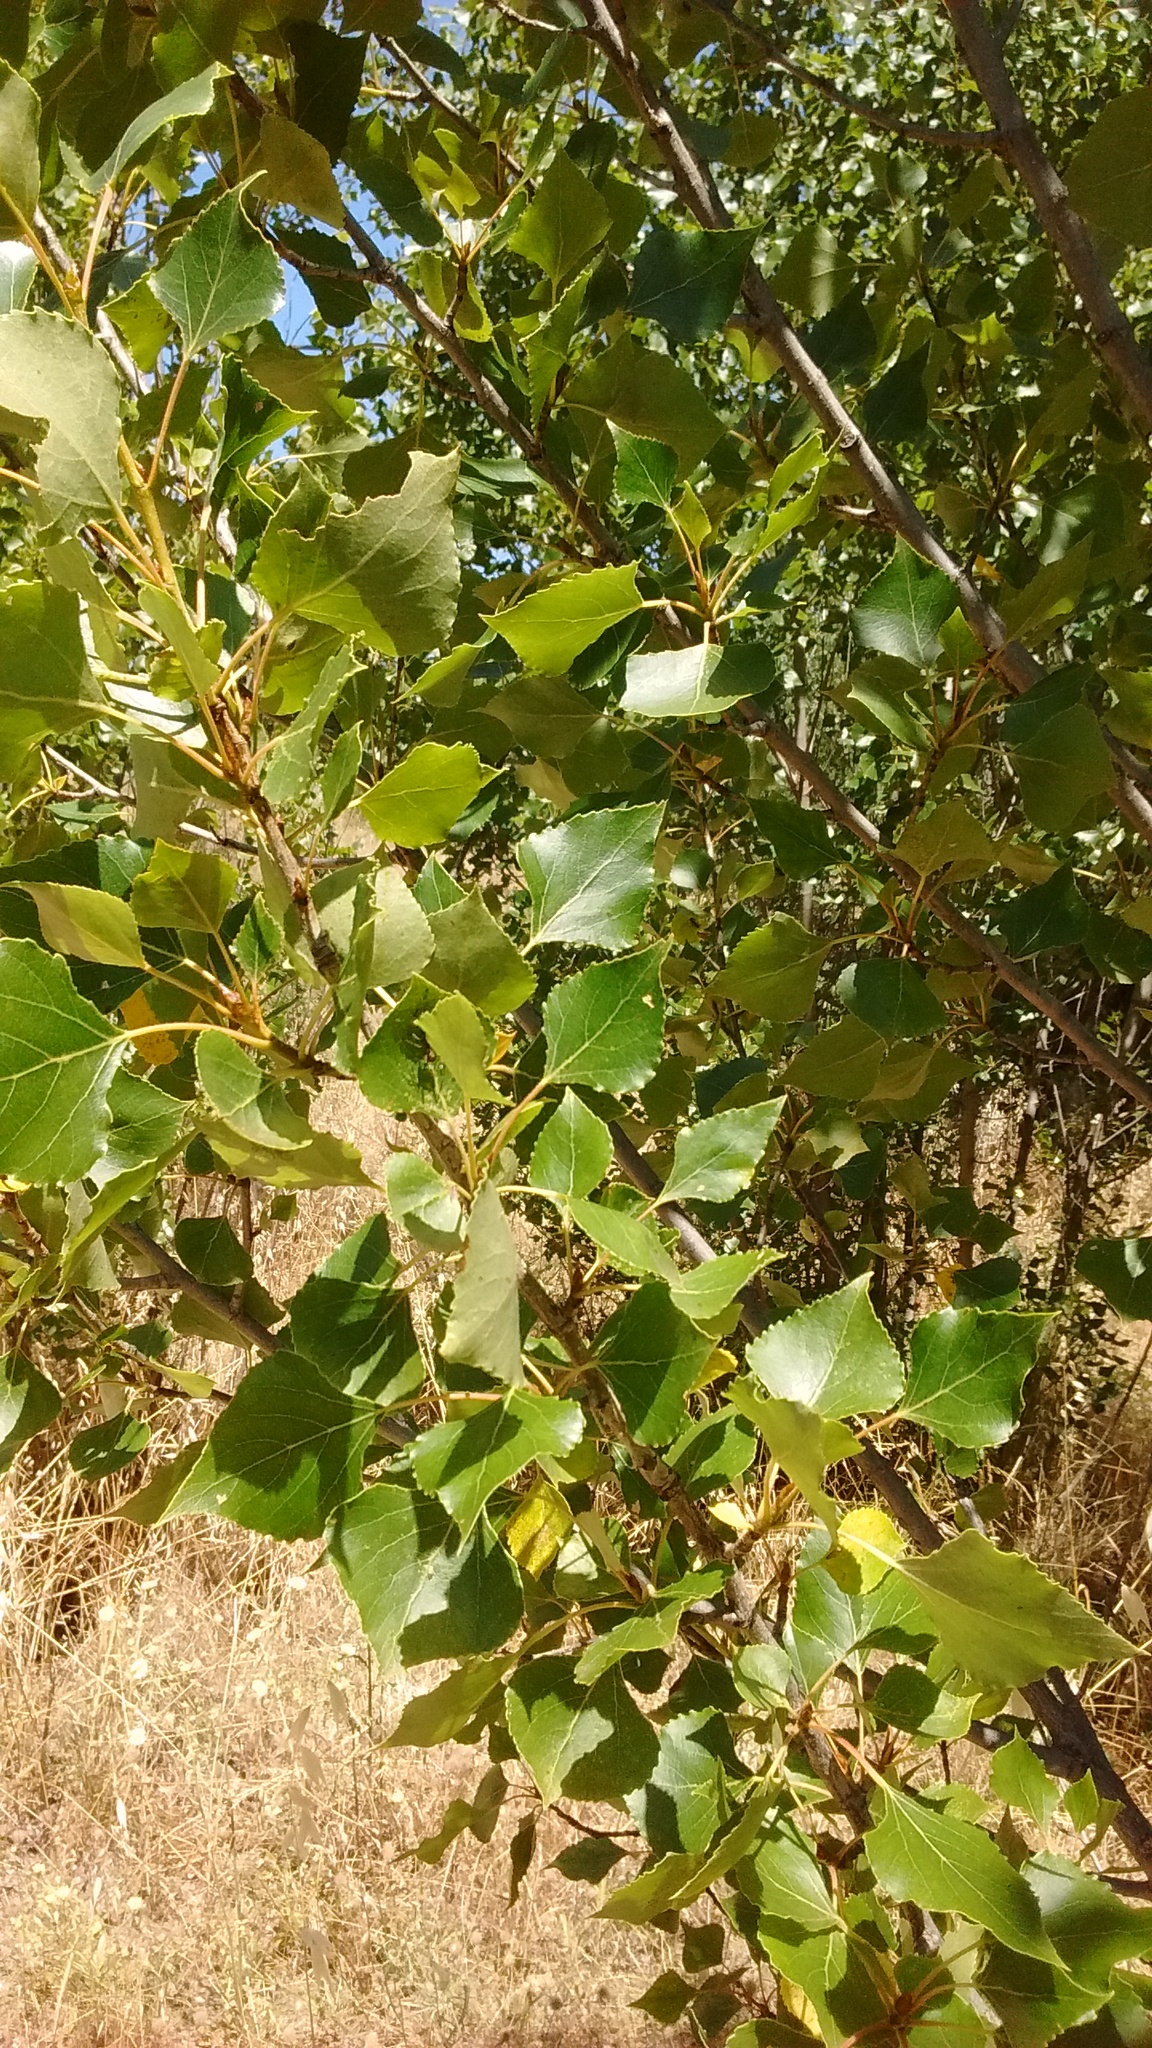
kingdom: Plantae
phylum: Tracheophyta
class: Magnoliopsida
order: Malpighiales
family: Salicaceae
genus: Populus
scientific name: Populus nigra
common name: Black poplar
